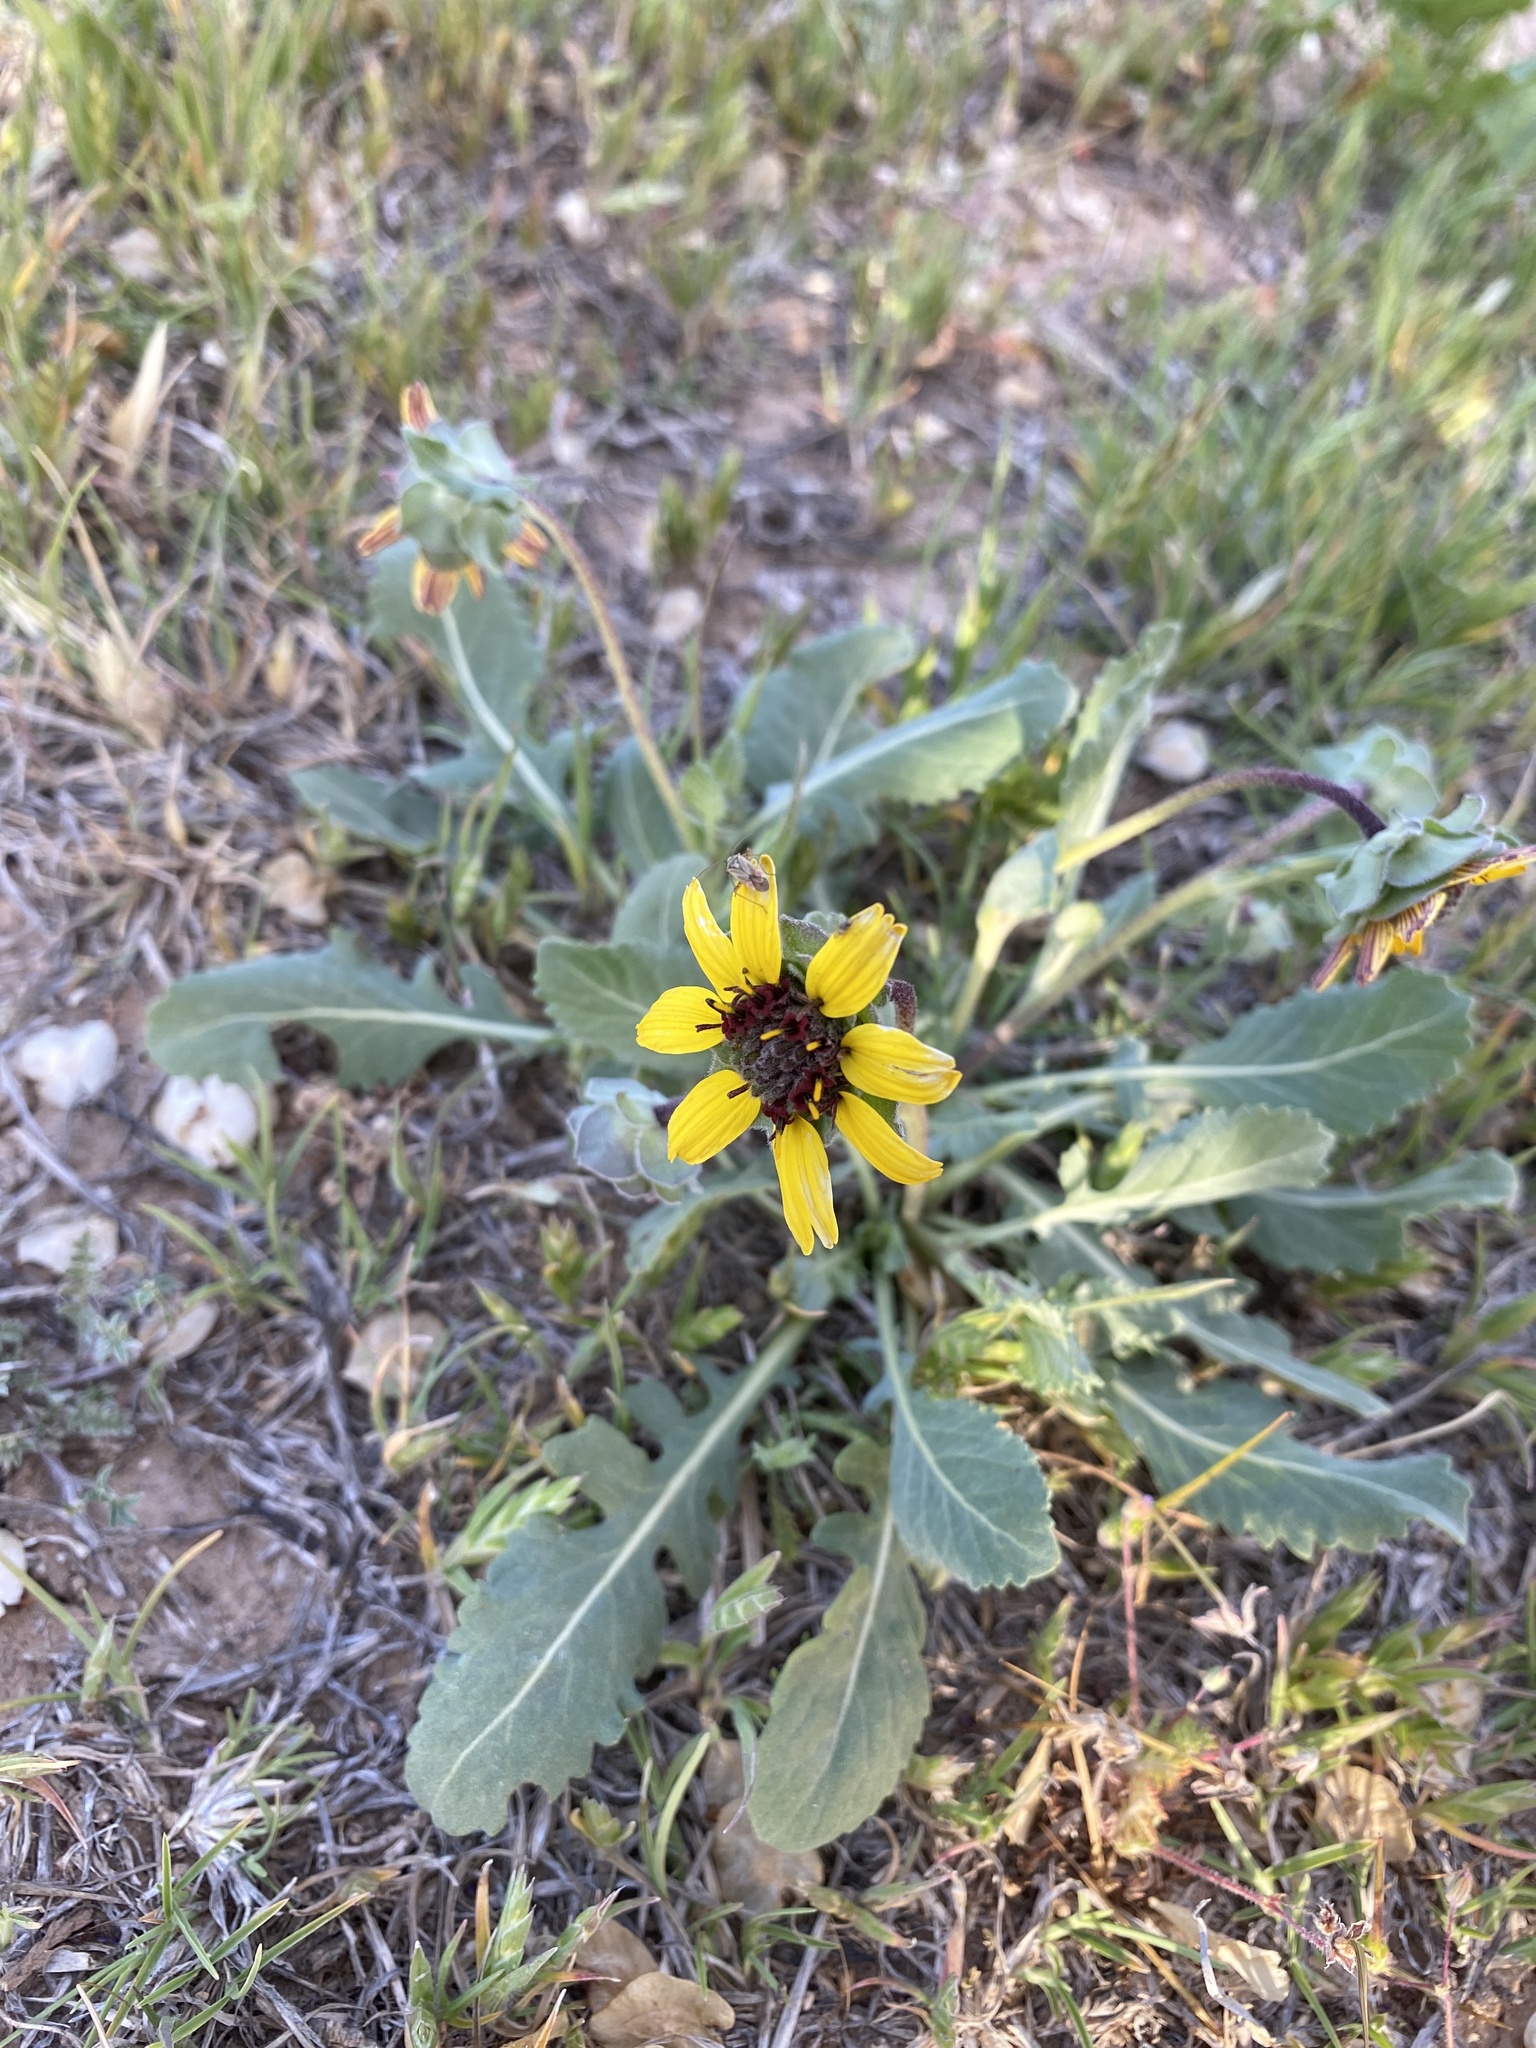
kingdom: Plantae
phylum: Tracheophyta
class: Magnoliopsida
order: Asterales
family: Asteraceae
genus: Berlandiera
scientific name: Berlandiera lyrata
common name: Chocolate-flower
